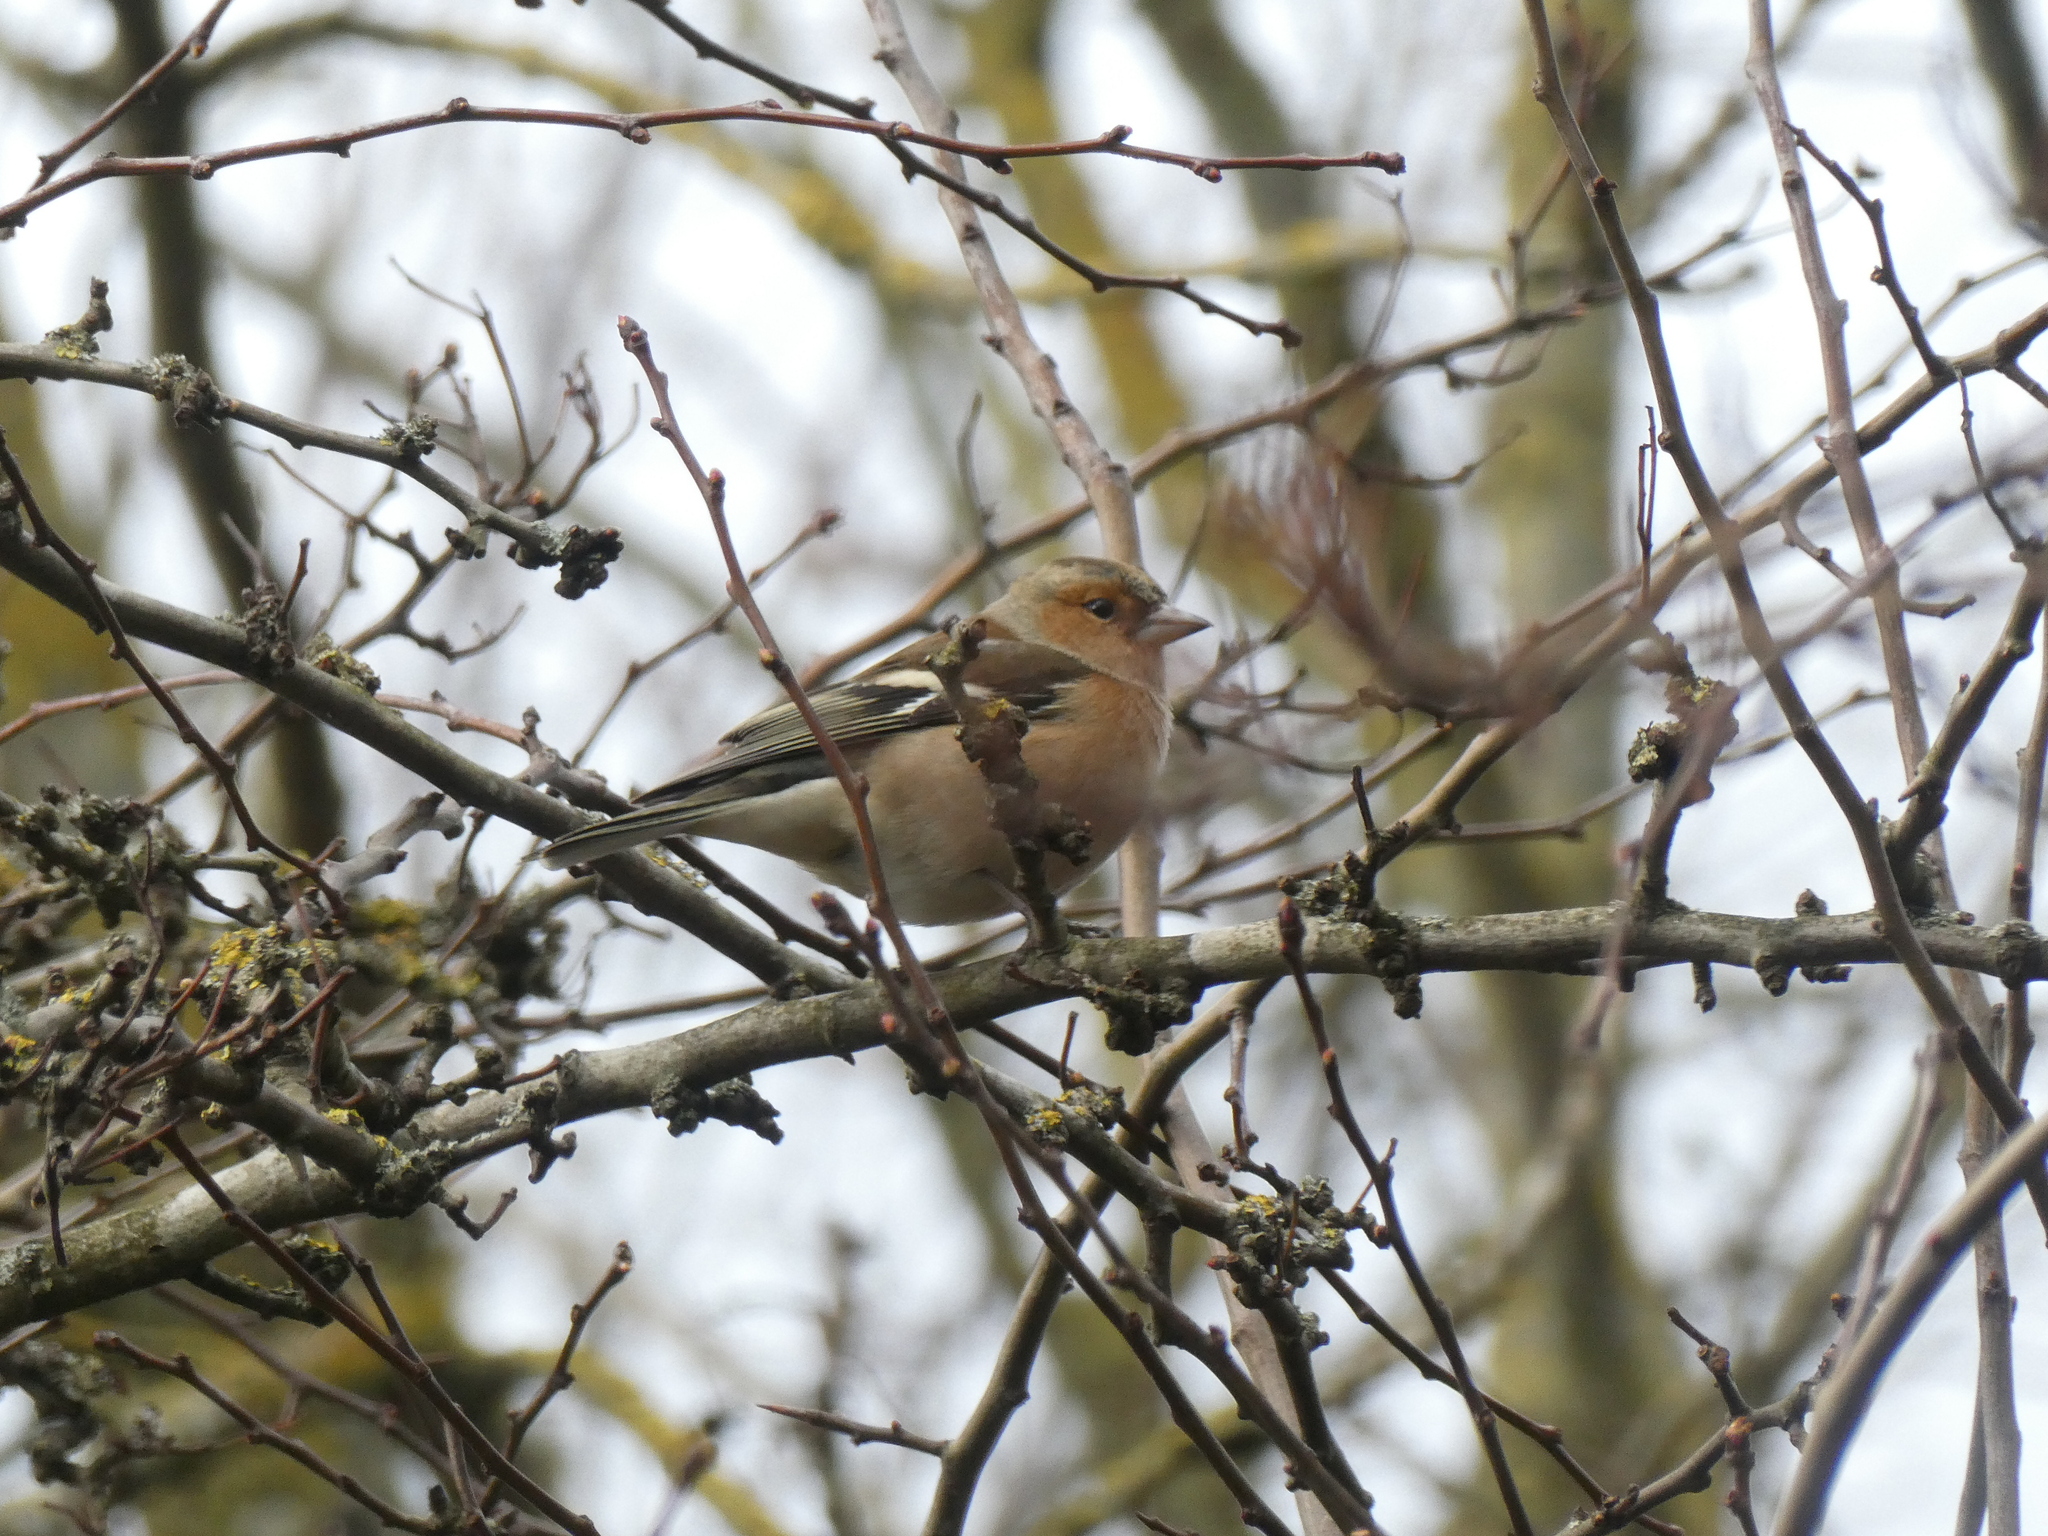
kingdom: Animalia
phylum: Chordata
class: Aves
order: Passeriformes
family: Fringillidae
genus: Fringilla
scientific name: Fringilla coelebs
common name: Common chaffinch
